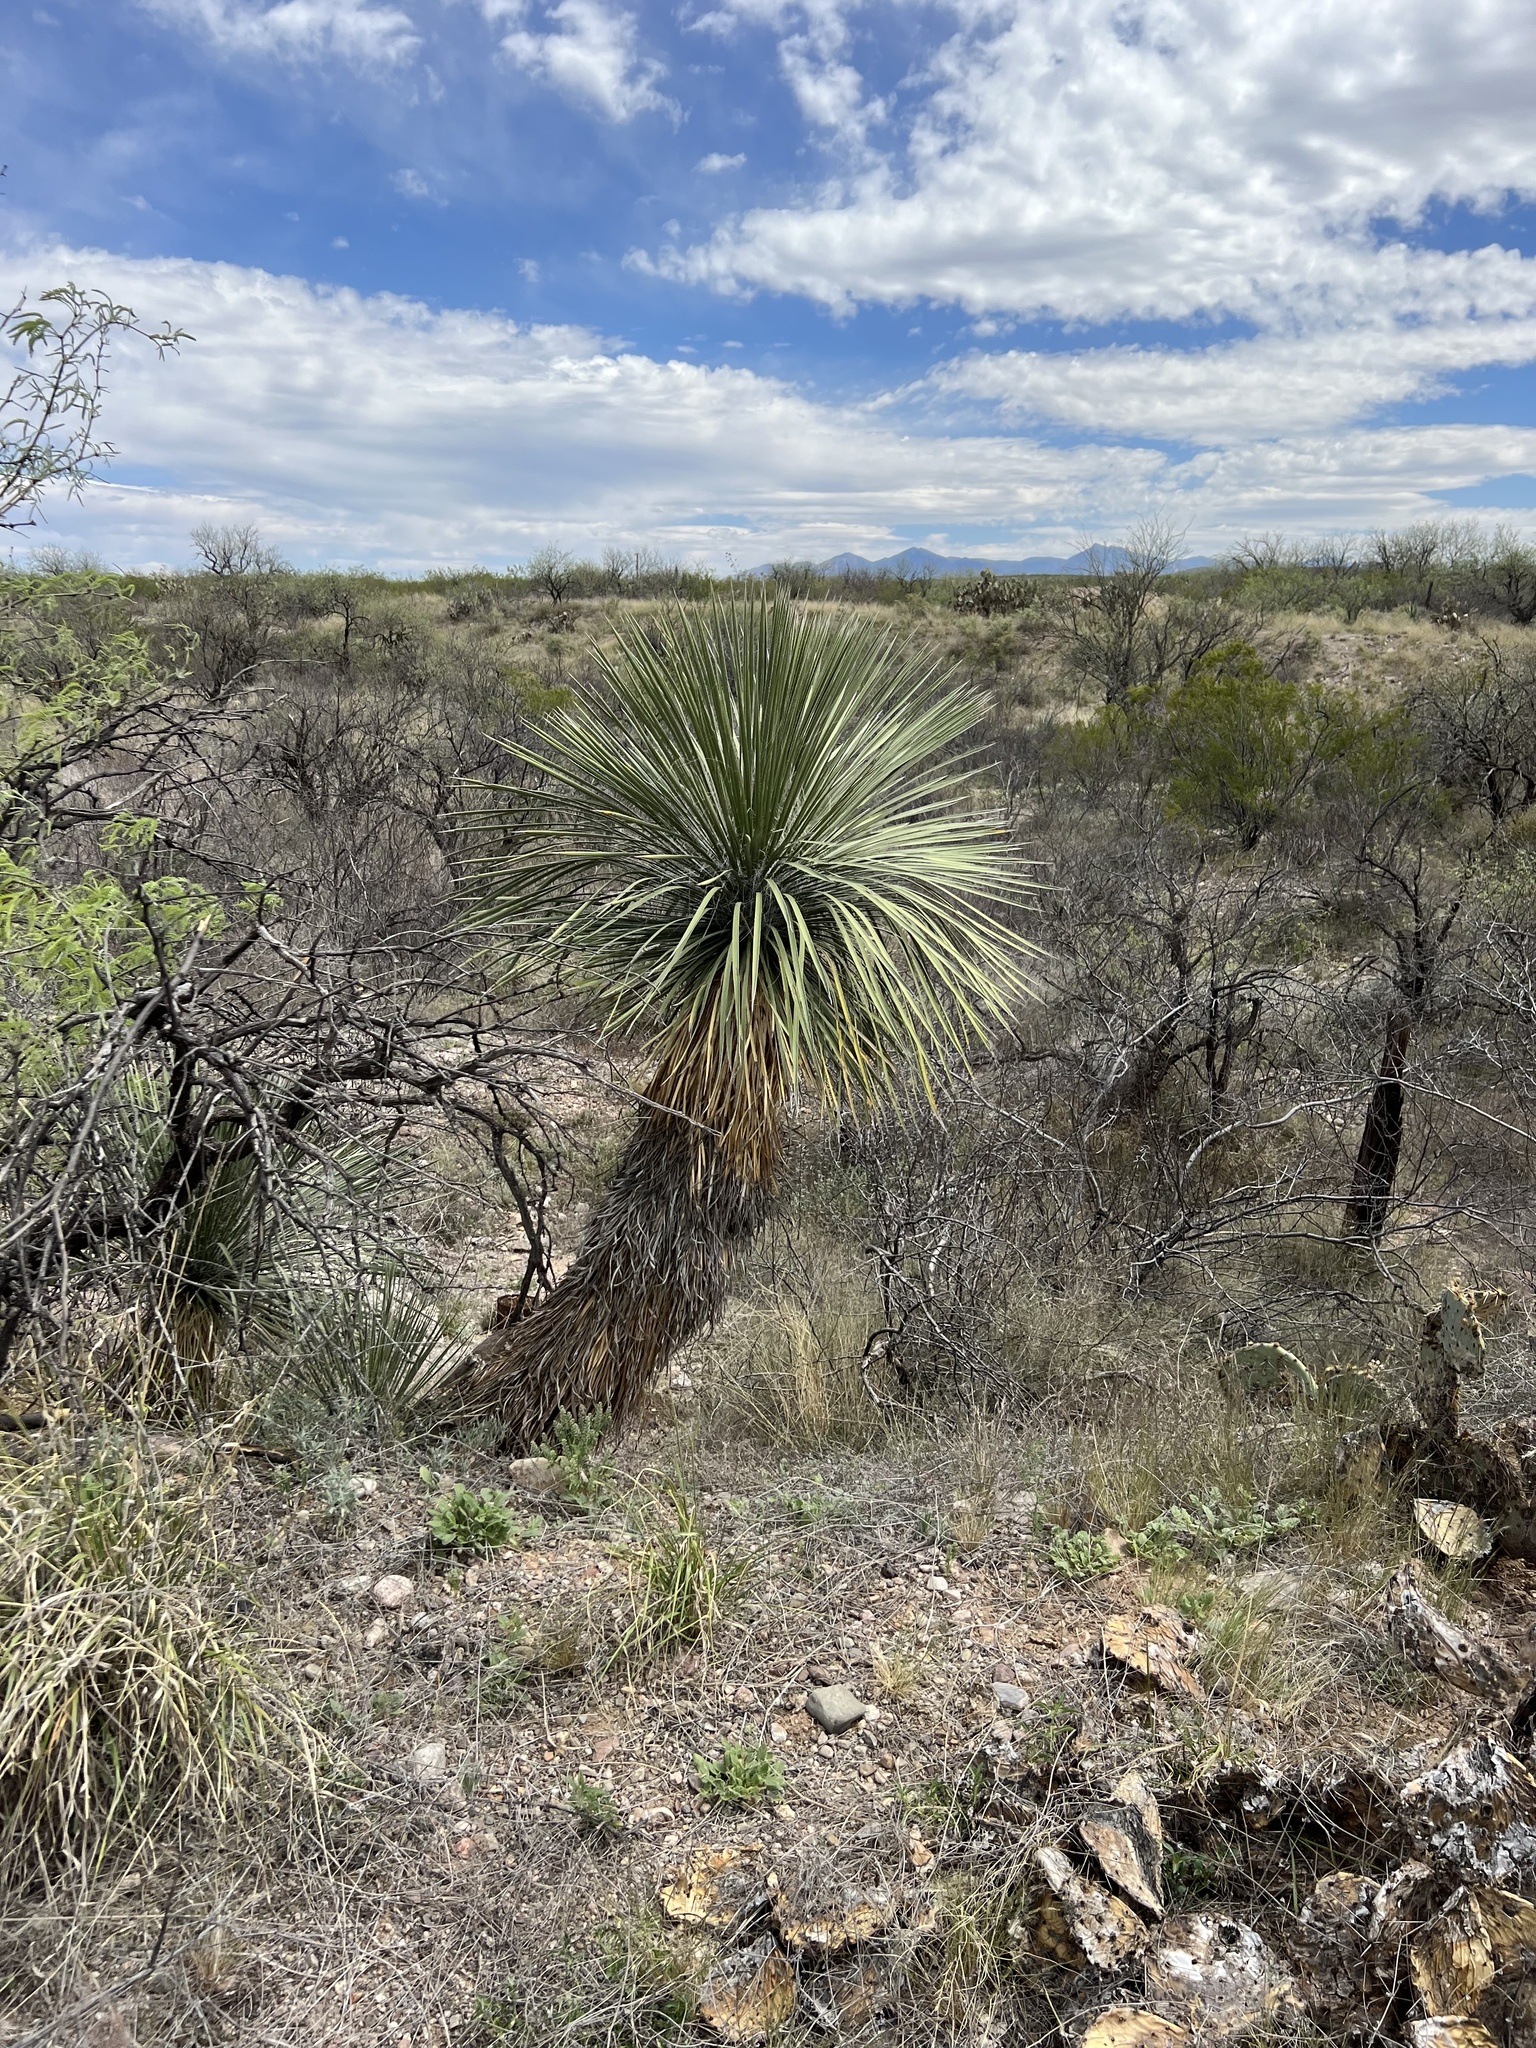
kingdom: Plantae
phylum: Tracheophyta
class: Liliopsida
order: Asparagales
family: Asparagaceae
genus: Yucca
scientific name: Yucca elata
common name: Palmella
